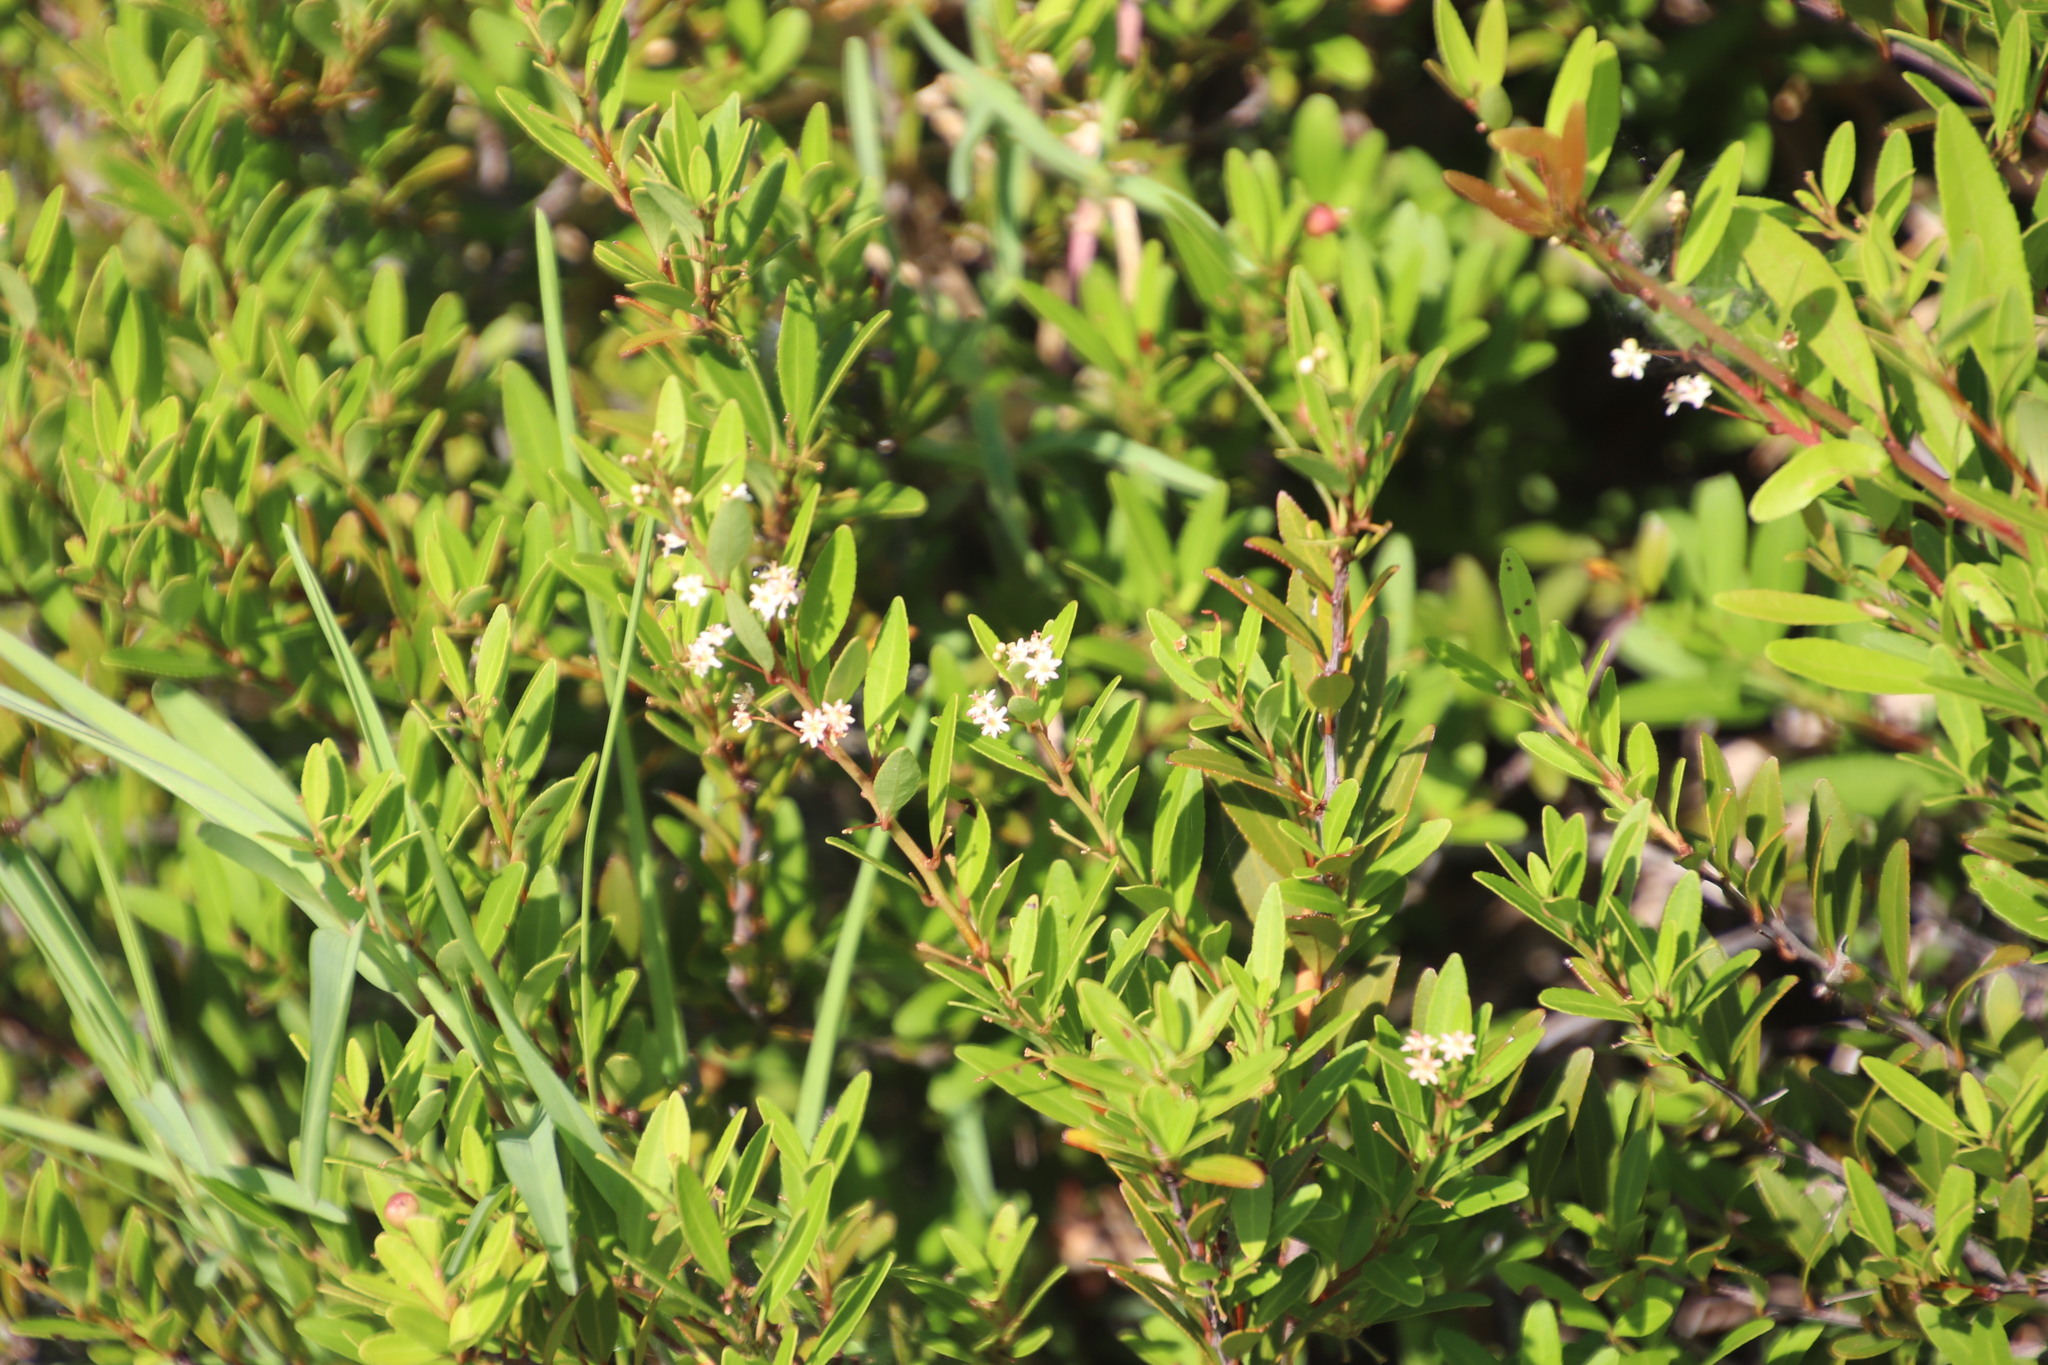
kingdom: Plantae
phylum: Tracheophyta
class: Magnoliopsida
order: Celastrales
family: Celastraceae
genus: Gymnosporia
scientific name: Gymnosporia bachmannii
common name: Willow koko tree
